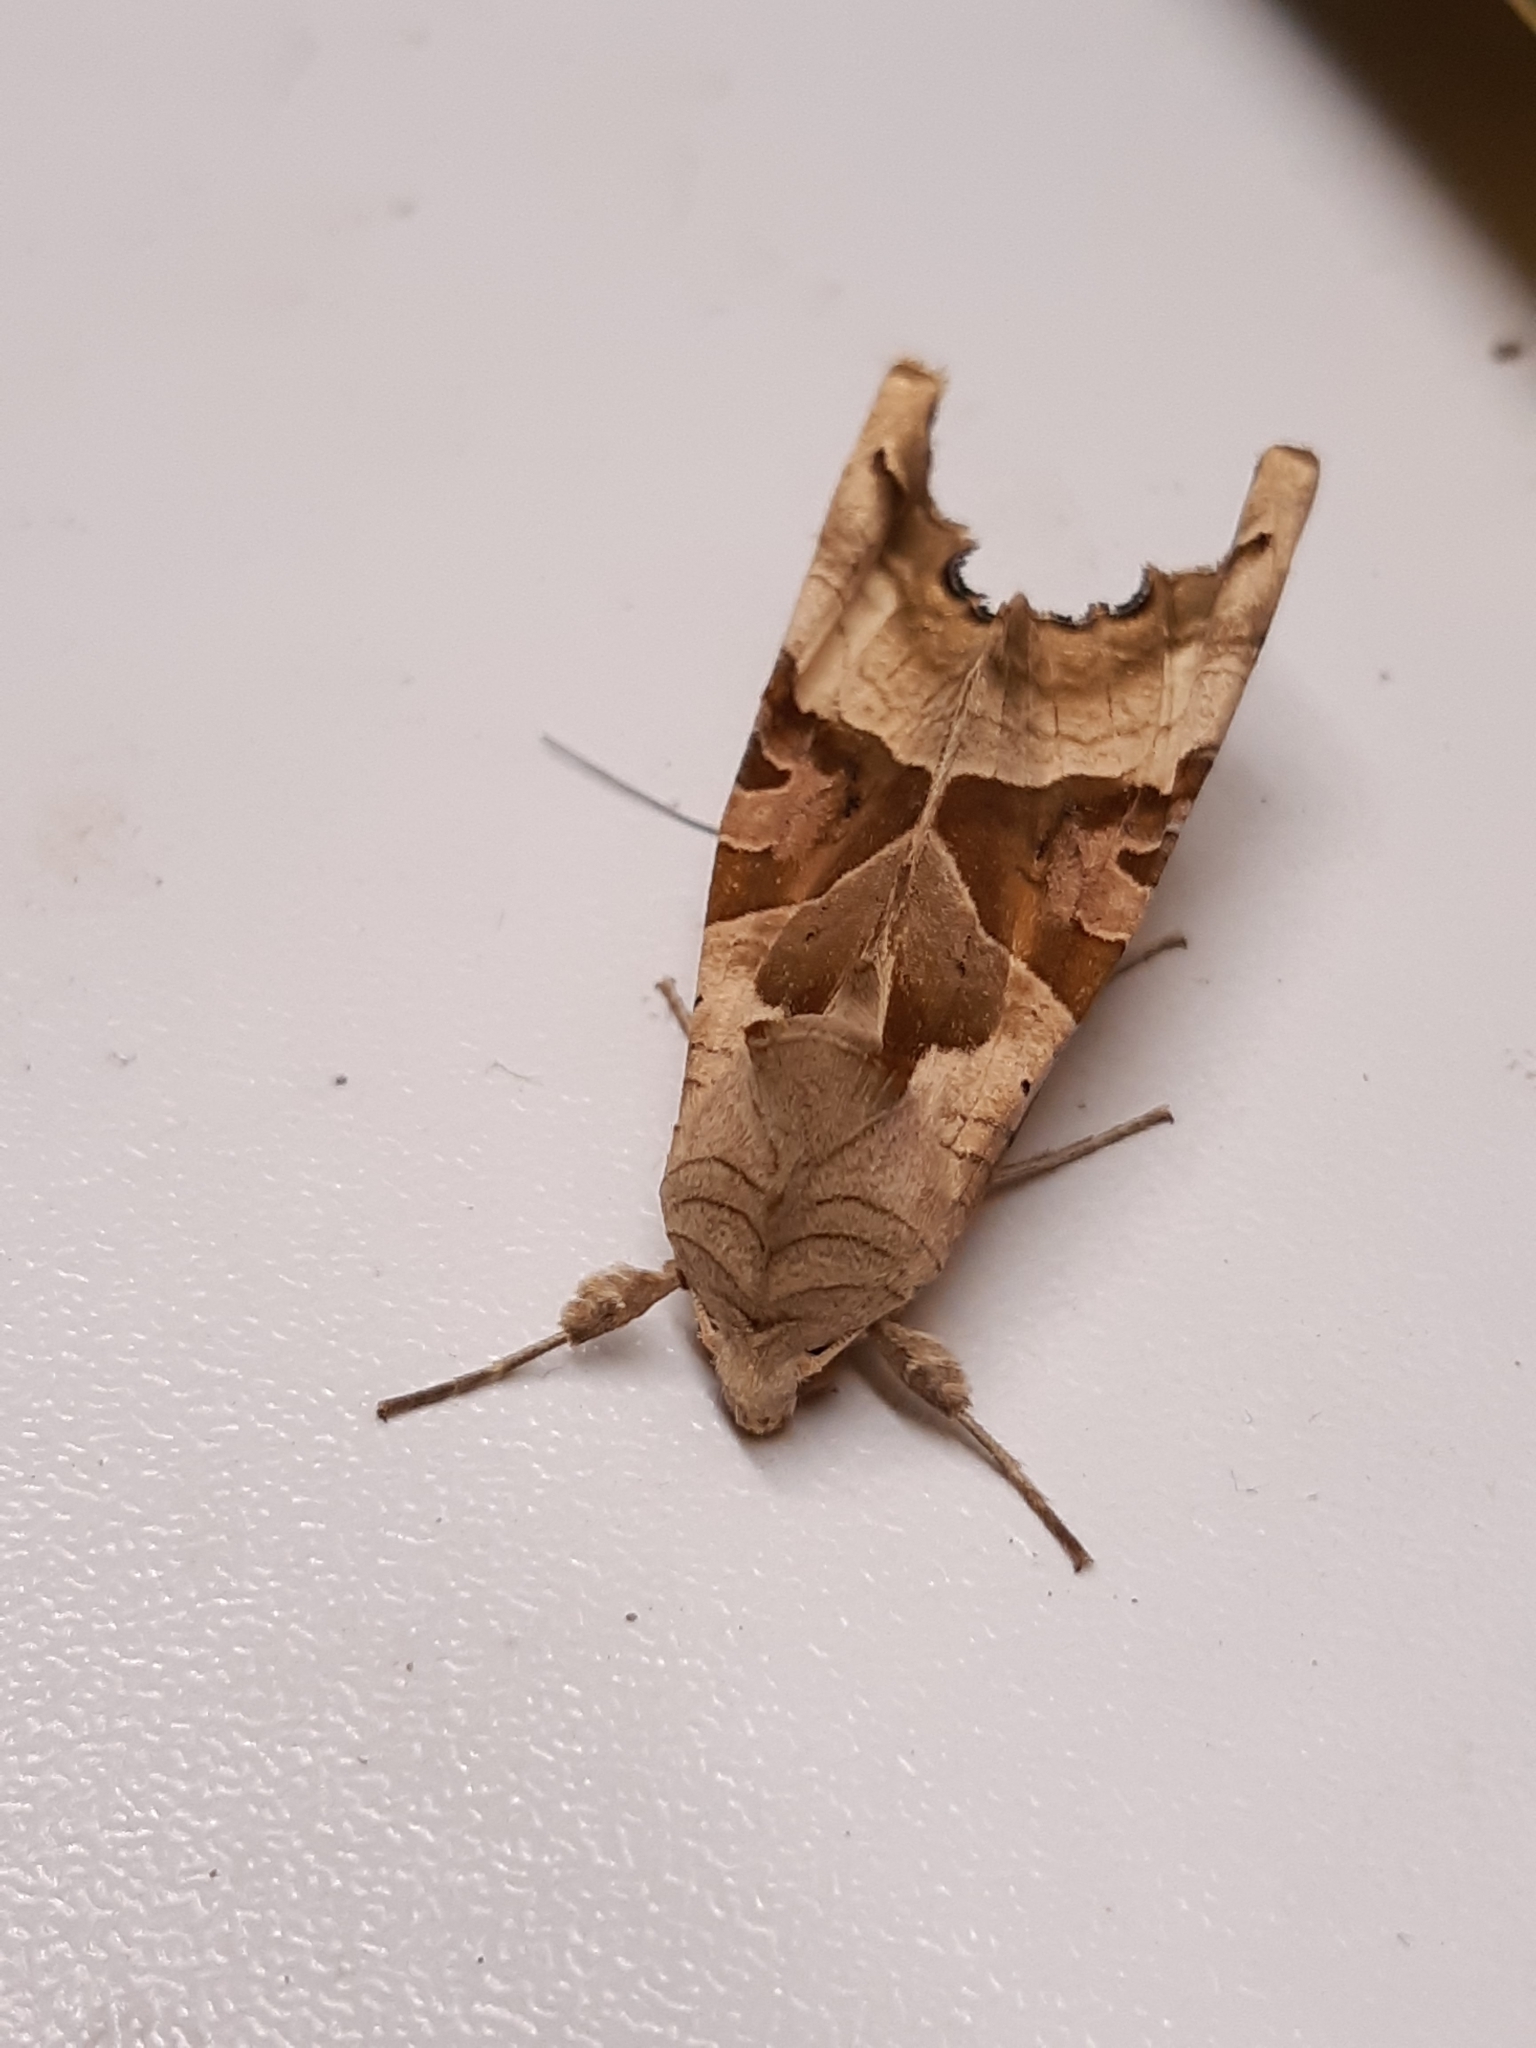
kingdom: Animalia
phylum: Arthropoda
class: Insecta
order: Lepidoptera
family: Noctuidae
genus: Phlogophora
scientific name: Phlogophora meticulosa
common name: Angle shades
